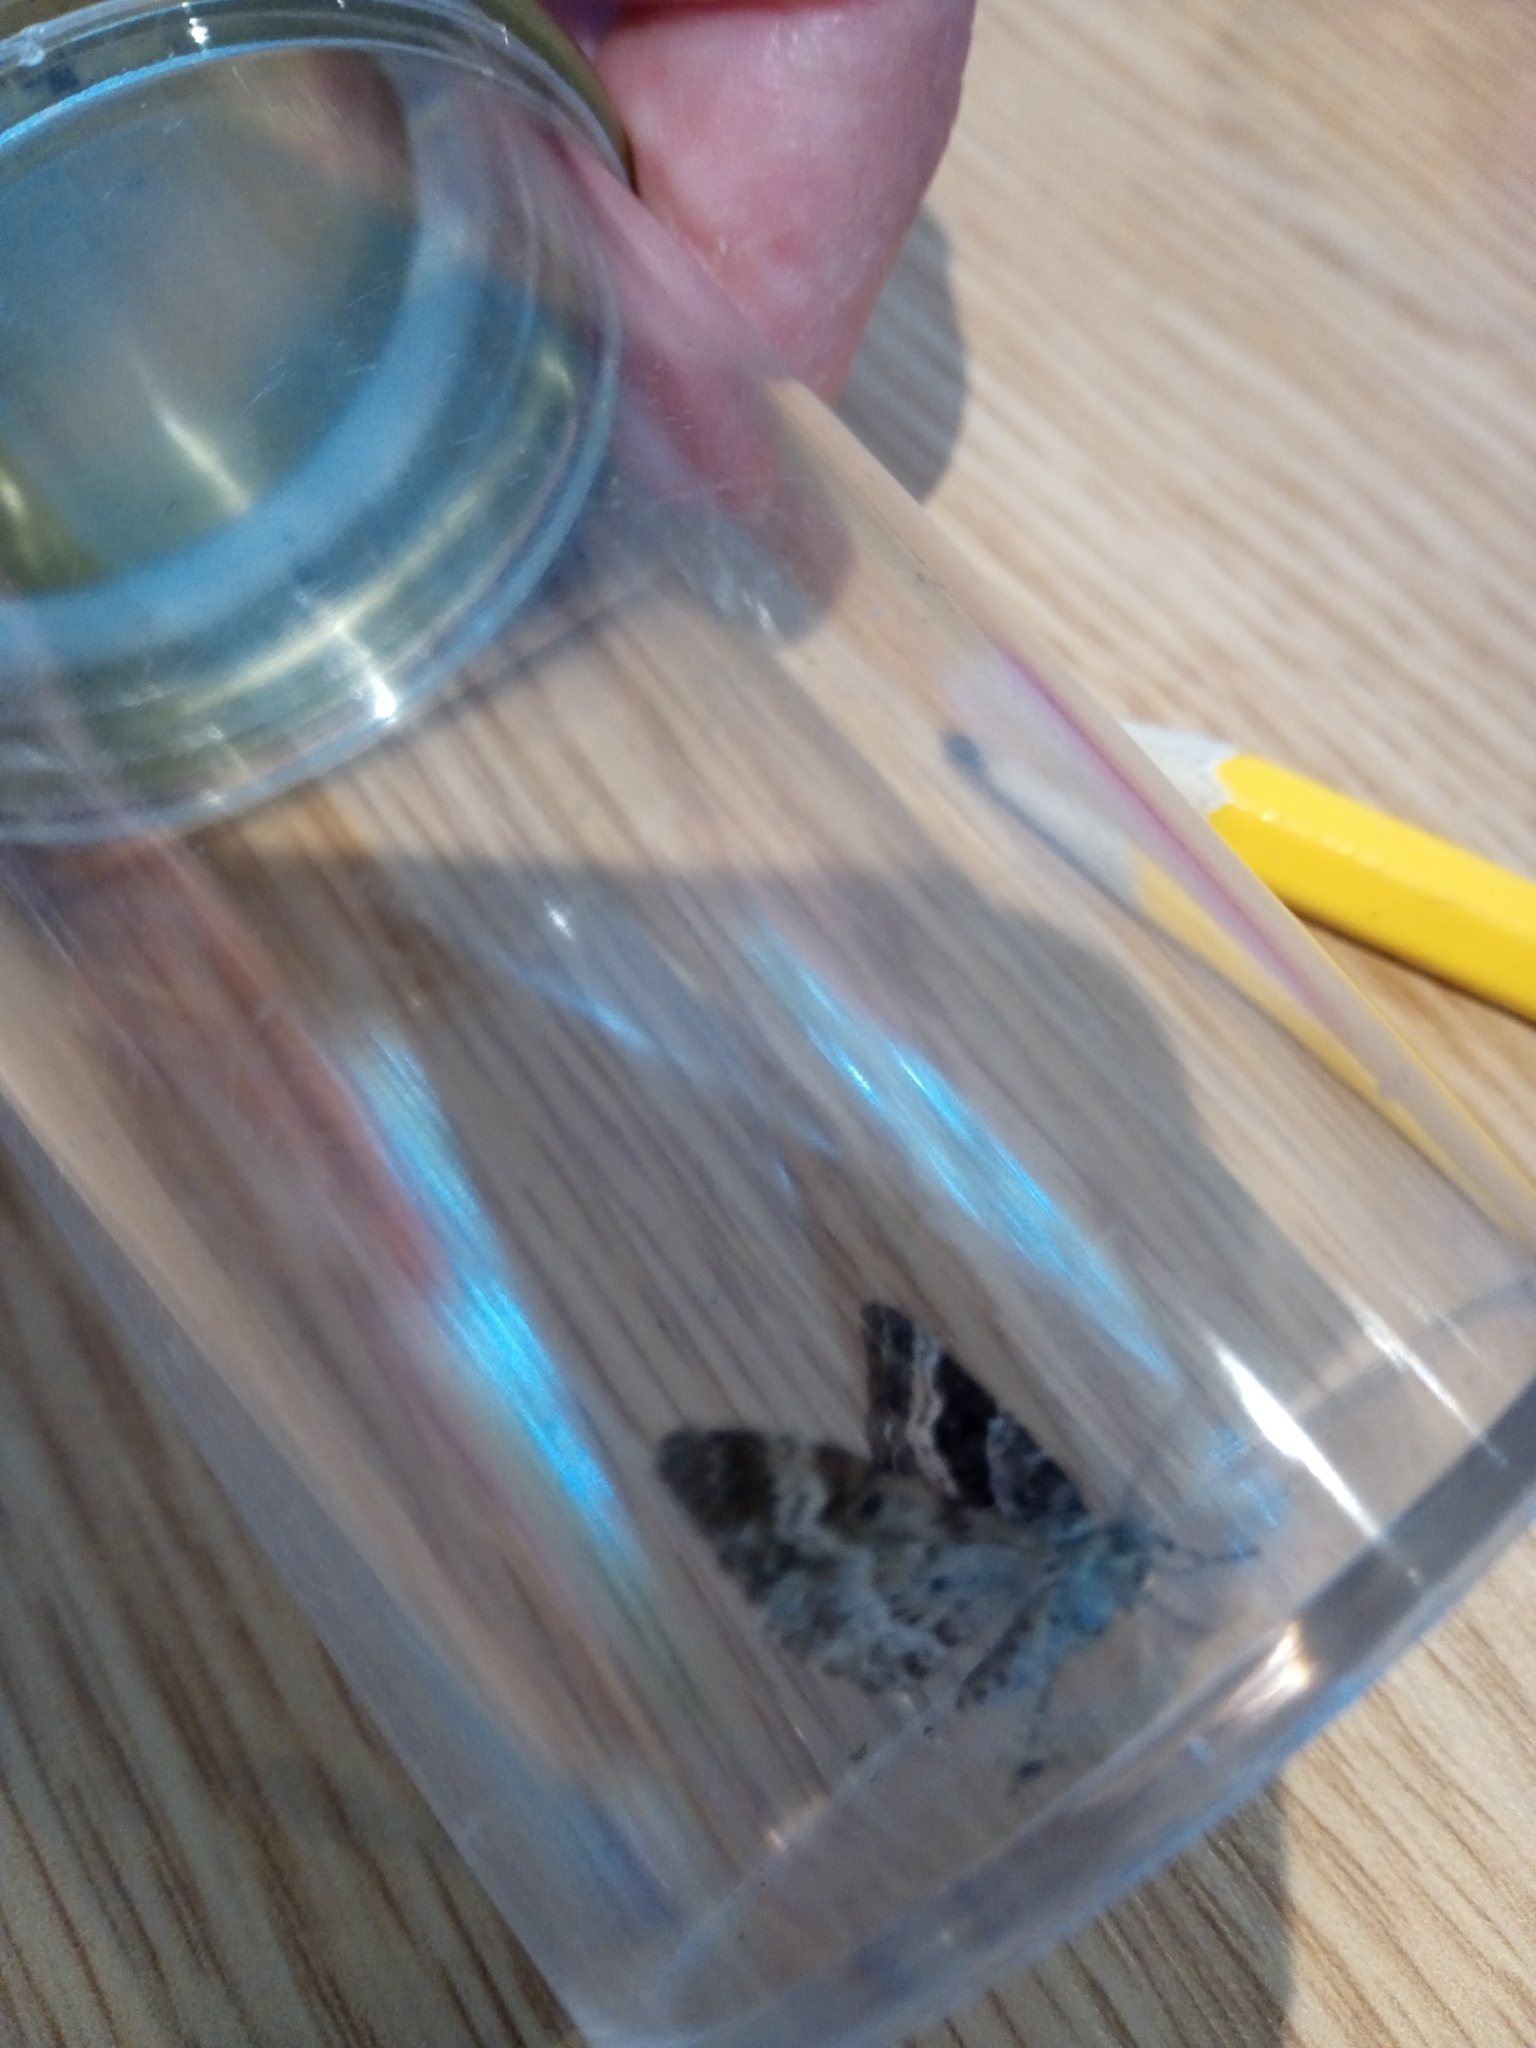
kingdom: Animalia
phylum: Arthropoda
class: Insecta
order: Lepidoptera
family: Geometridae
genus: Epirrhoe
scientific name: Epirrhoe alternata
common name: Common carpet
